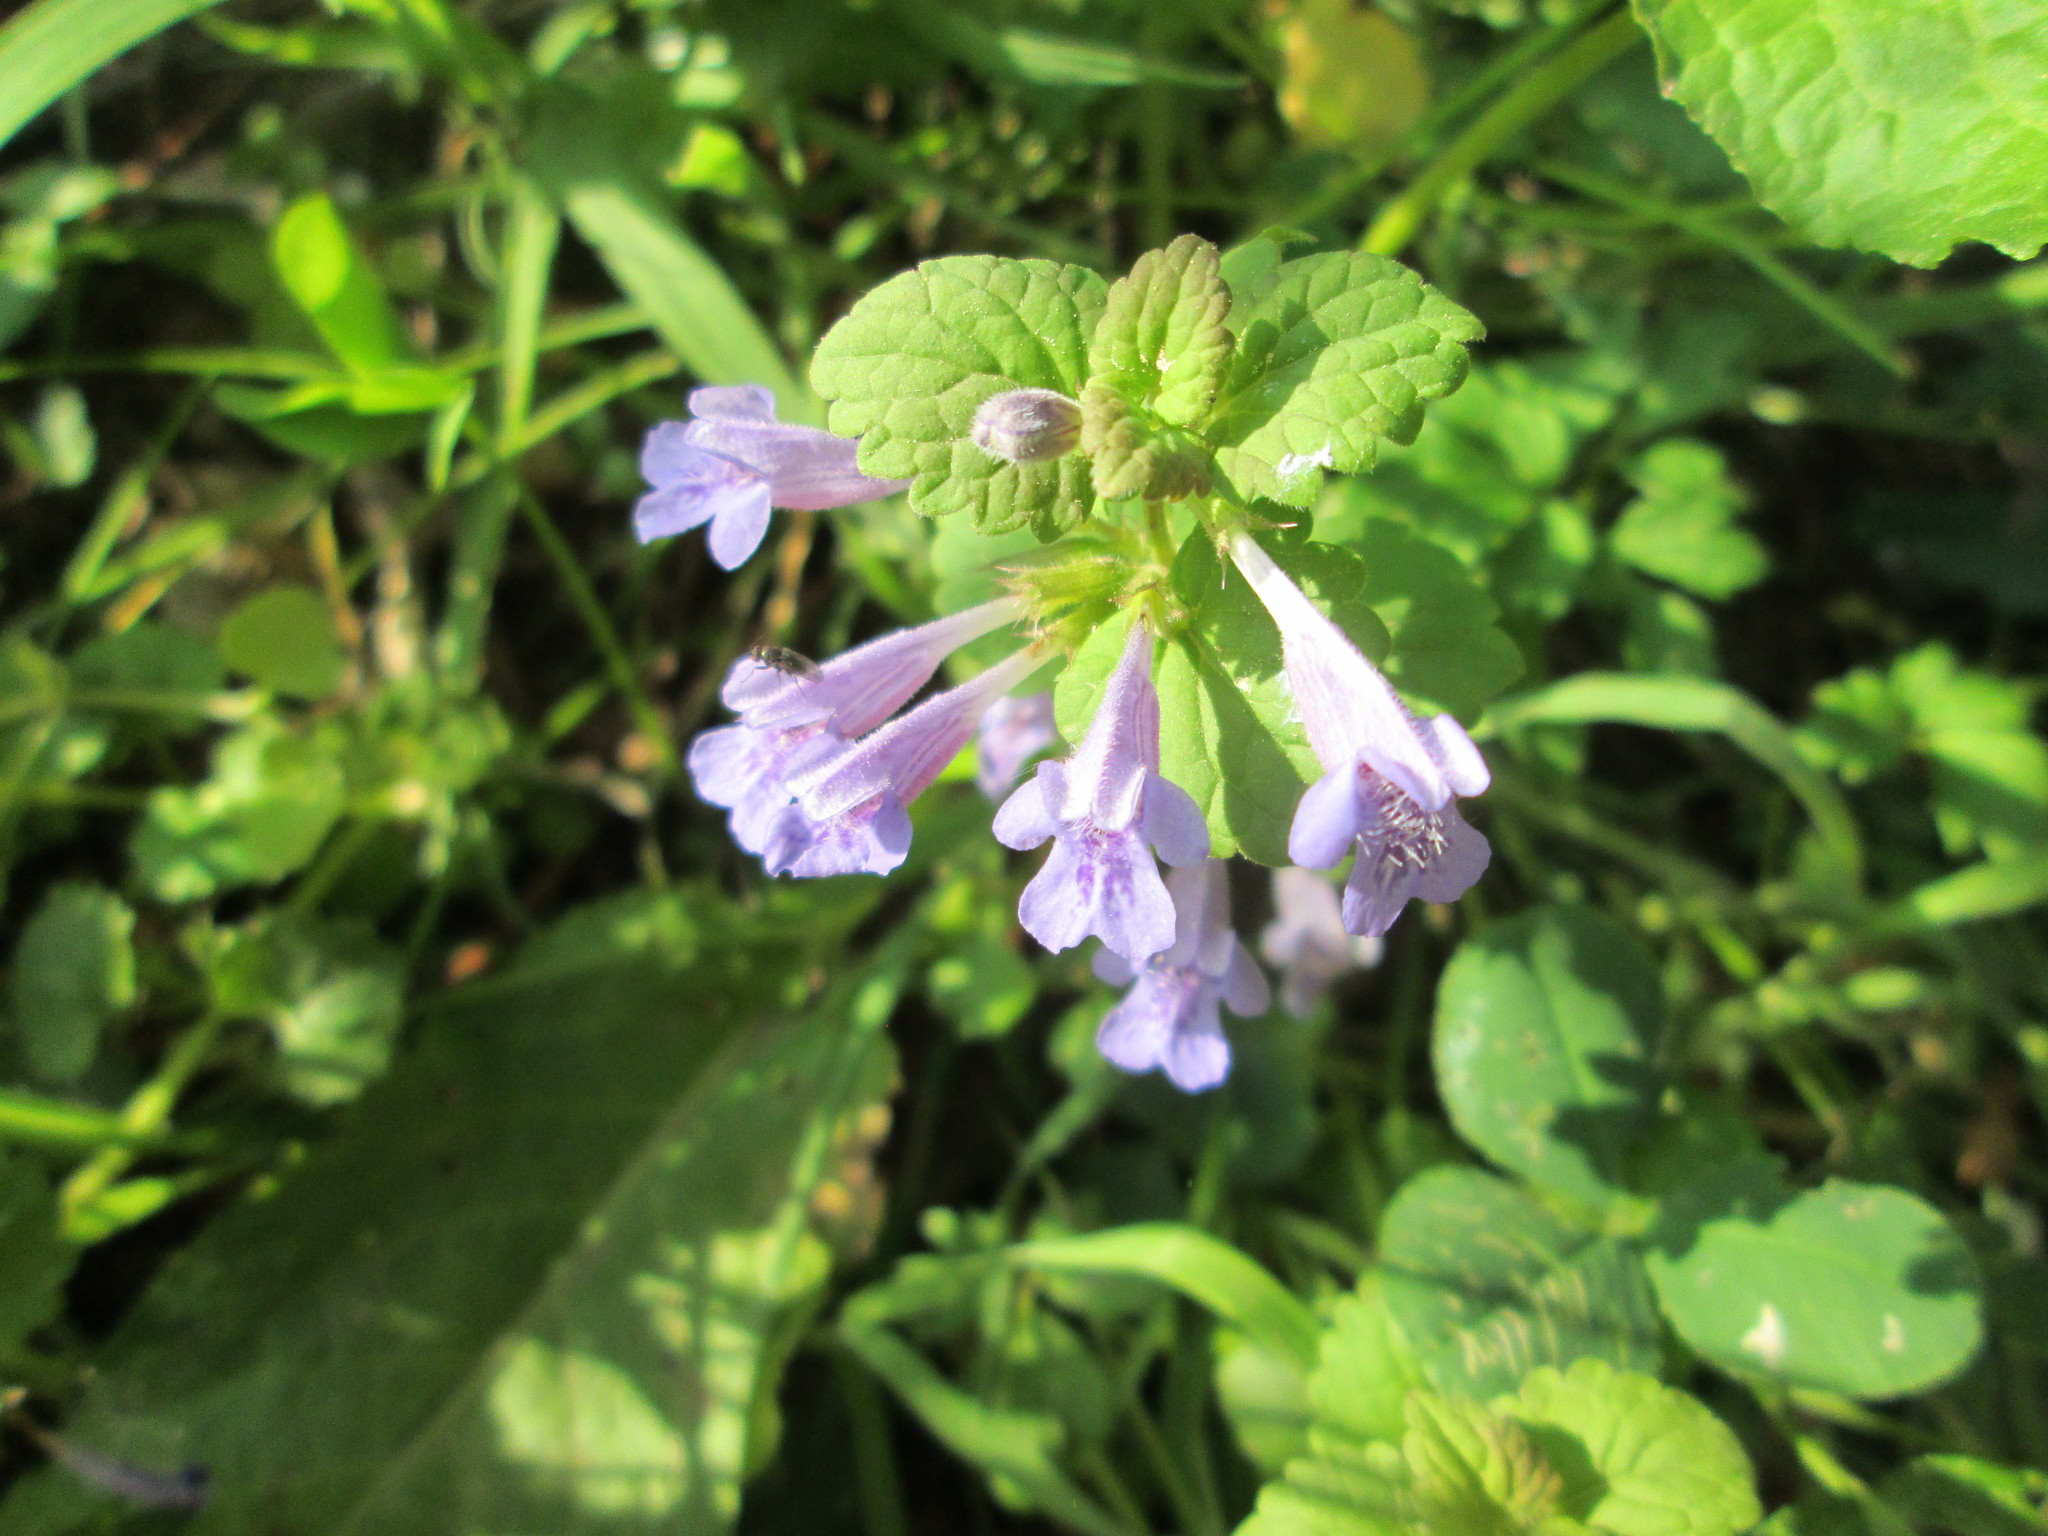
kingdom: Plantae
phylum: Tracheophyta
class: Magnoliopsida
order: Lamiales
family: Lamiaceae
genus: Glechoma
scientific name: Glechoma hederacea
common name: Ground ivy
